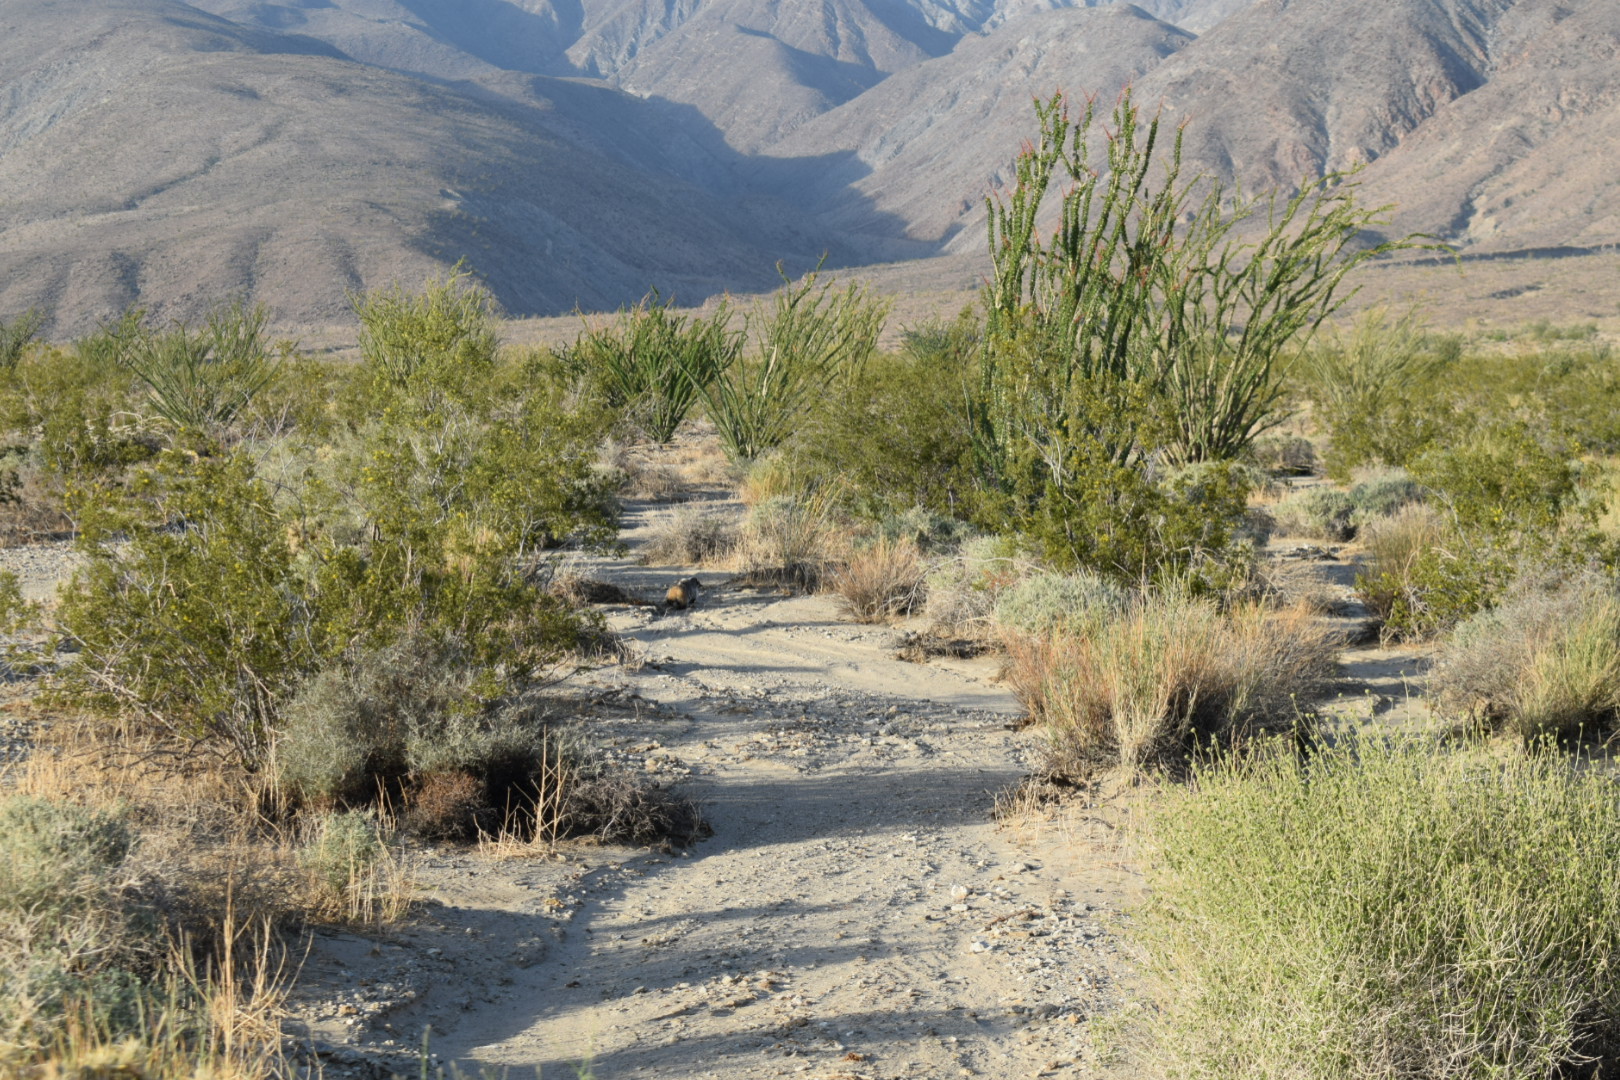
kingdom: Animalia
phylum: Chordata
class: Mammalia
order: Carnivora
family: Mustelidae
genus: Taxidea
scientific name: Taxidea taxus
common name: American badger
